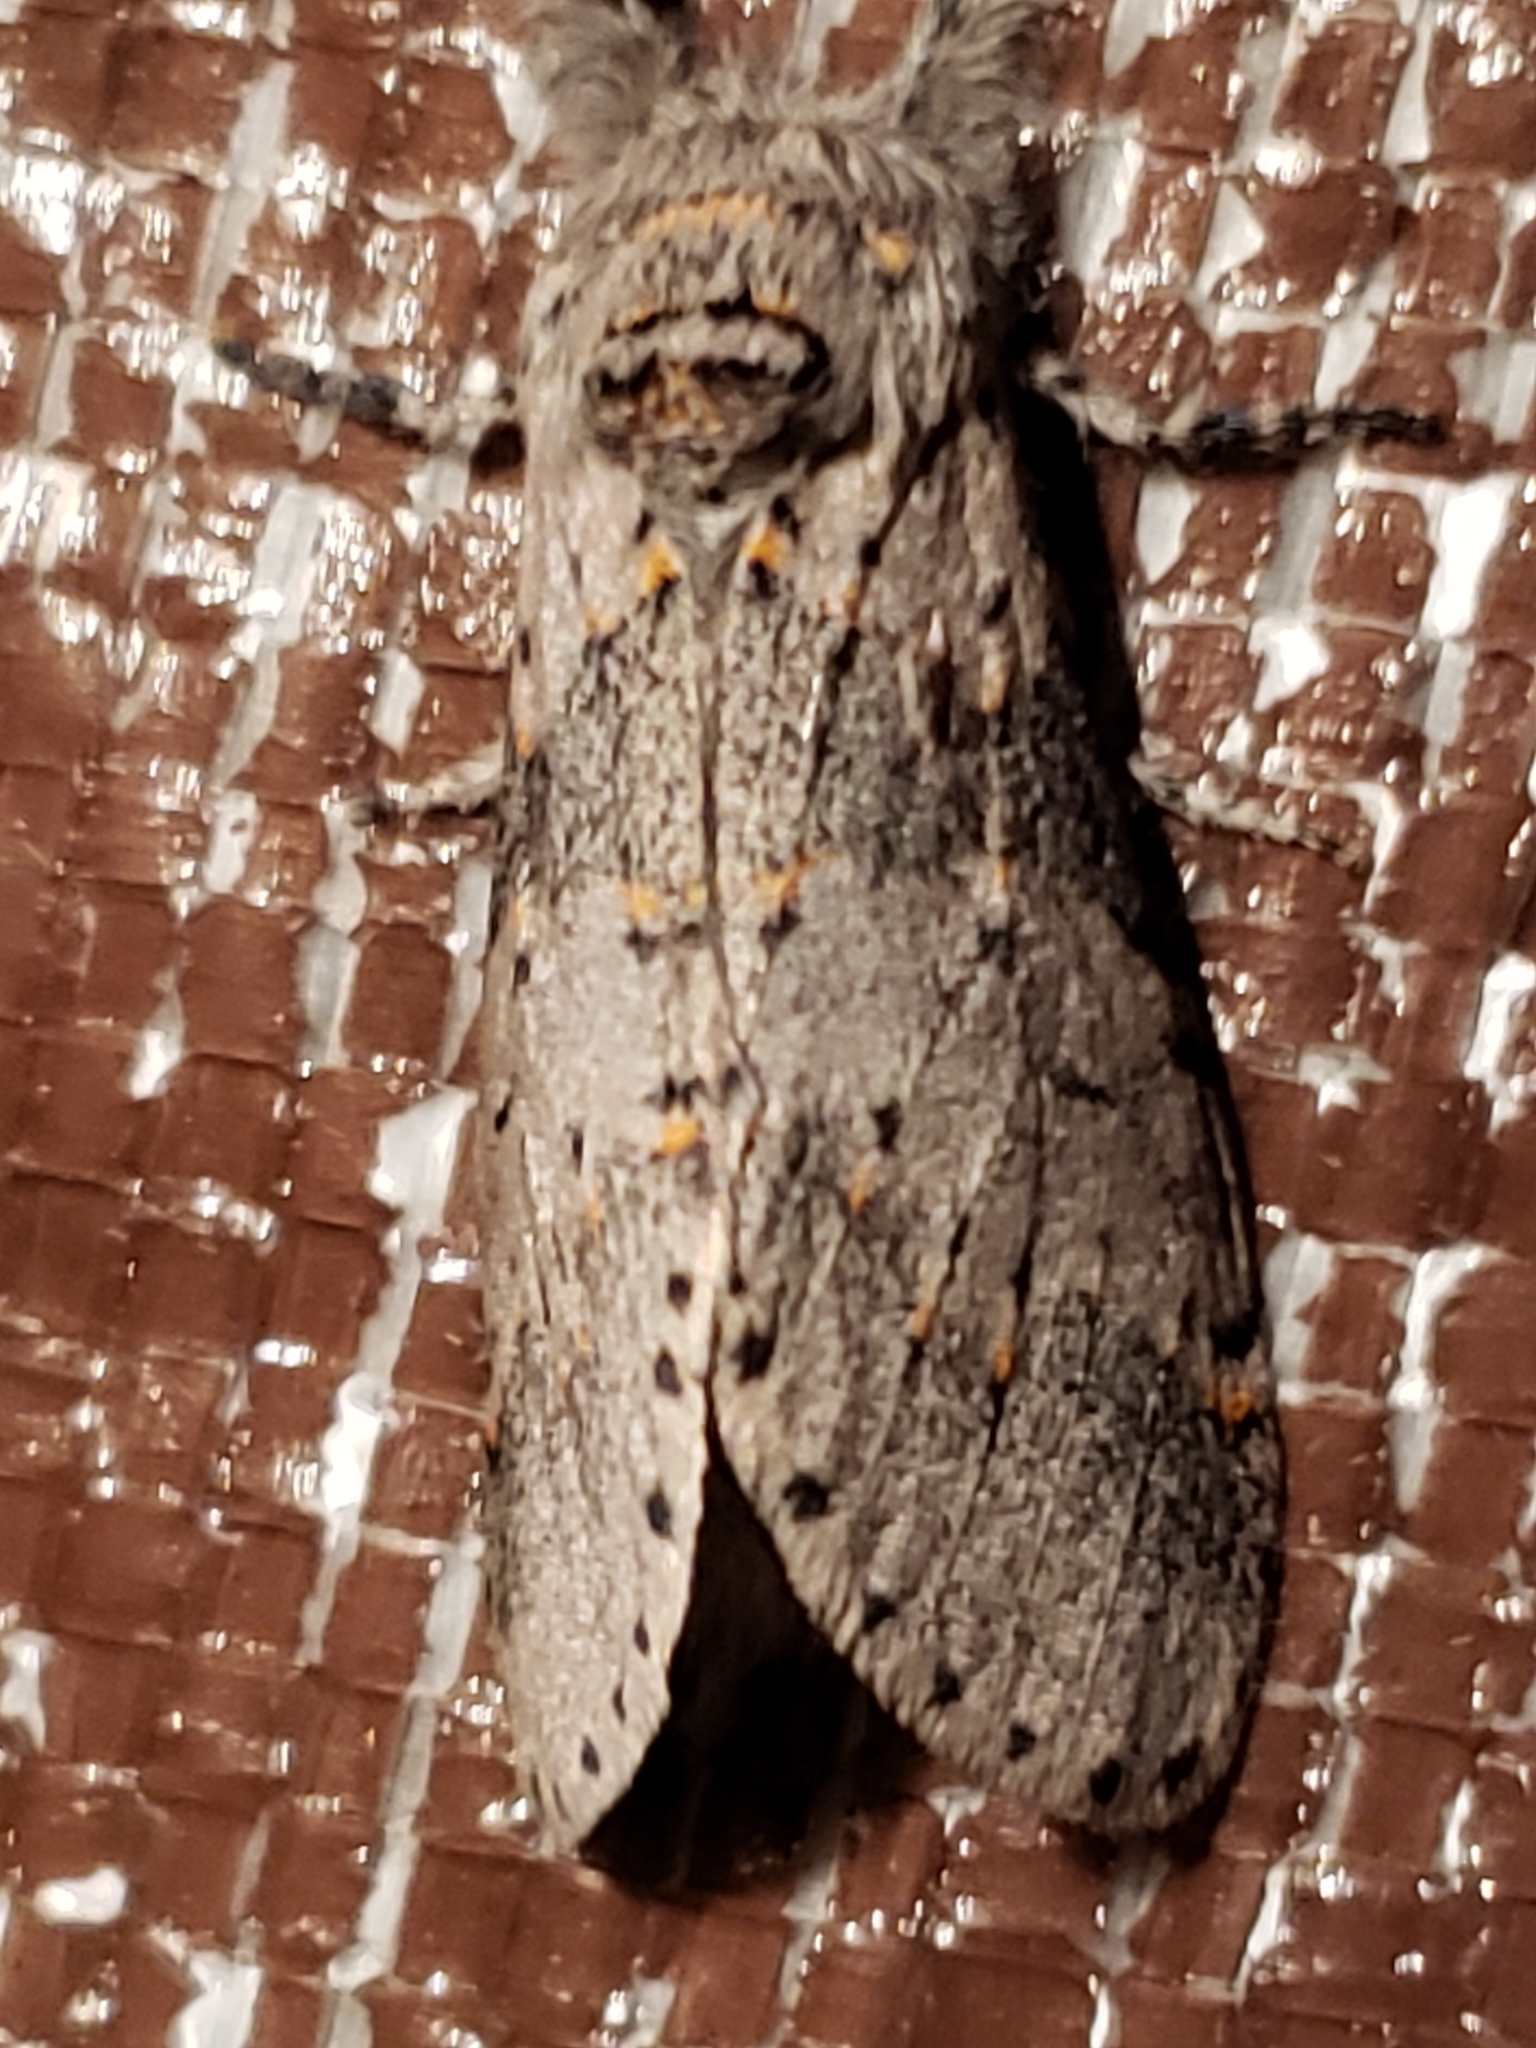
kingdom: Animalia
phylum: Arthropoda
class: Insecta
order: Lepidoptera
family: Notodontidae
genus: Furcula
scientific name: Furcula cinerea
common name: Gray furcula
